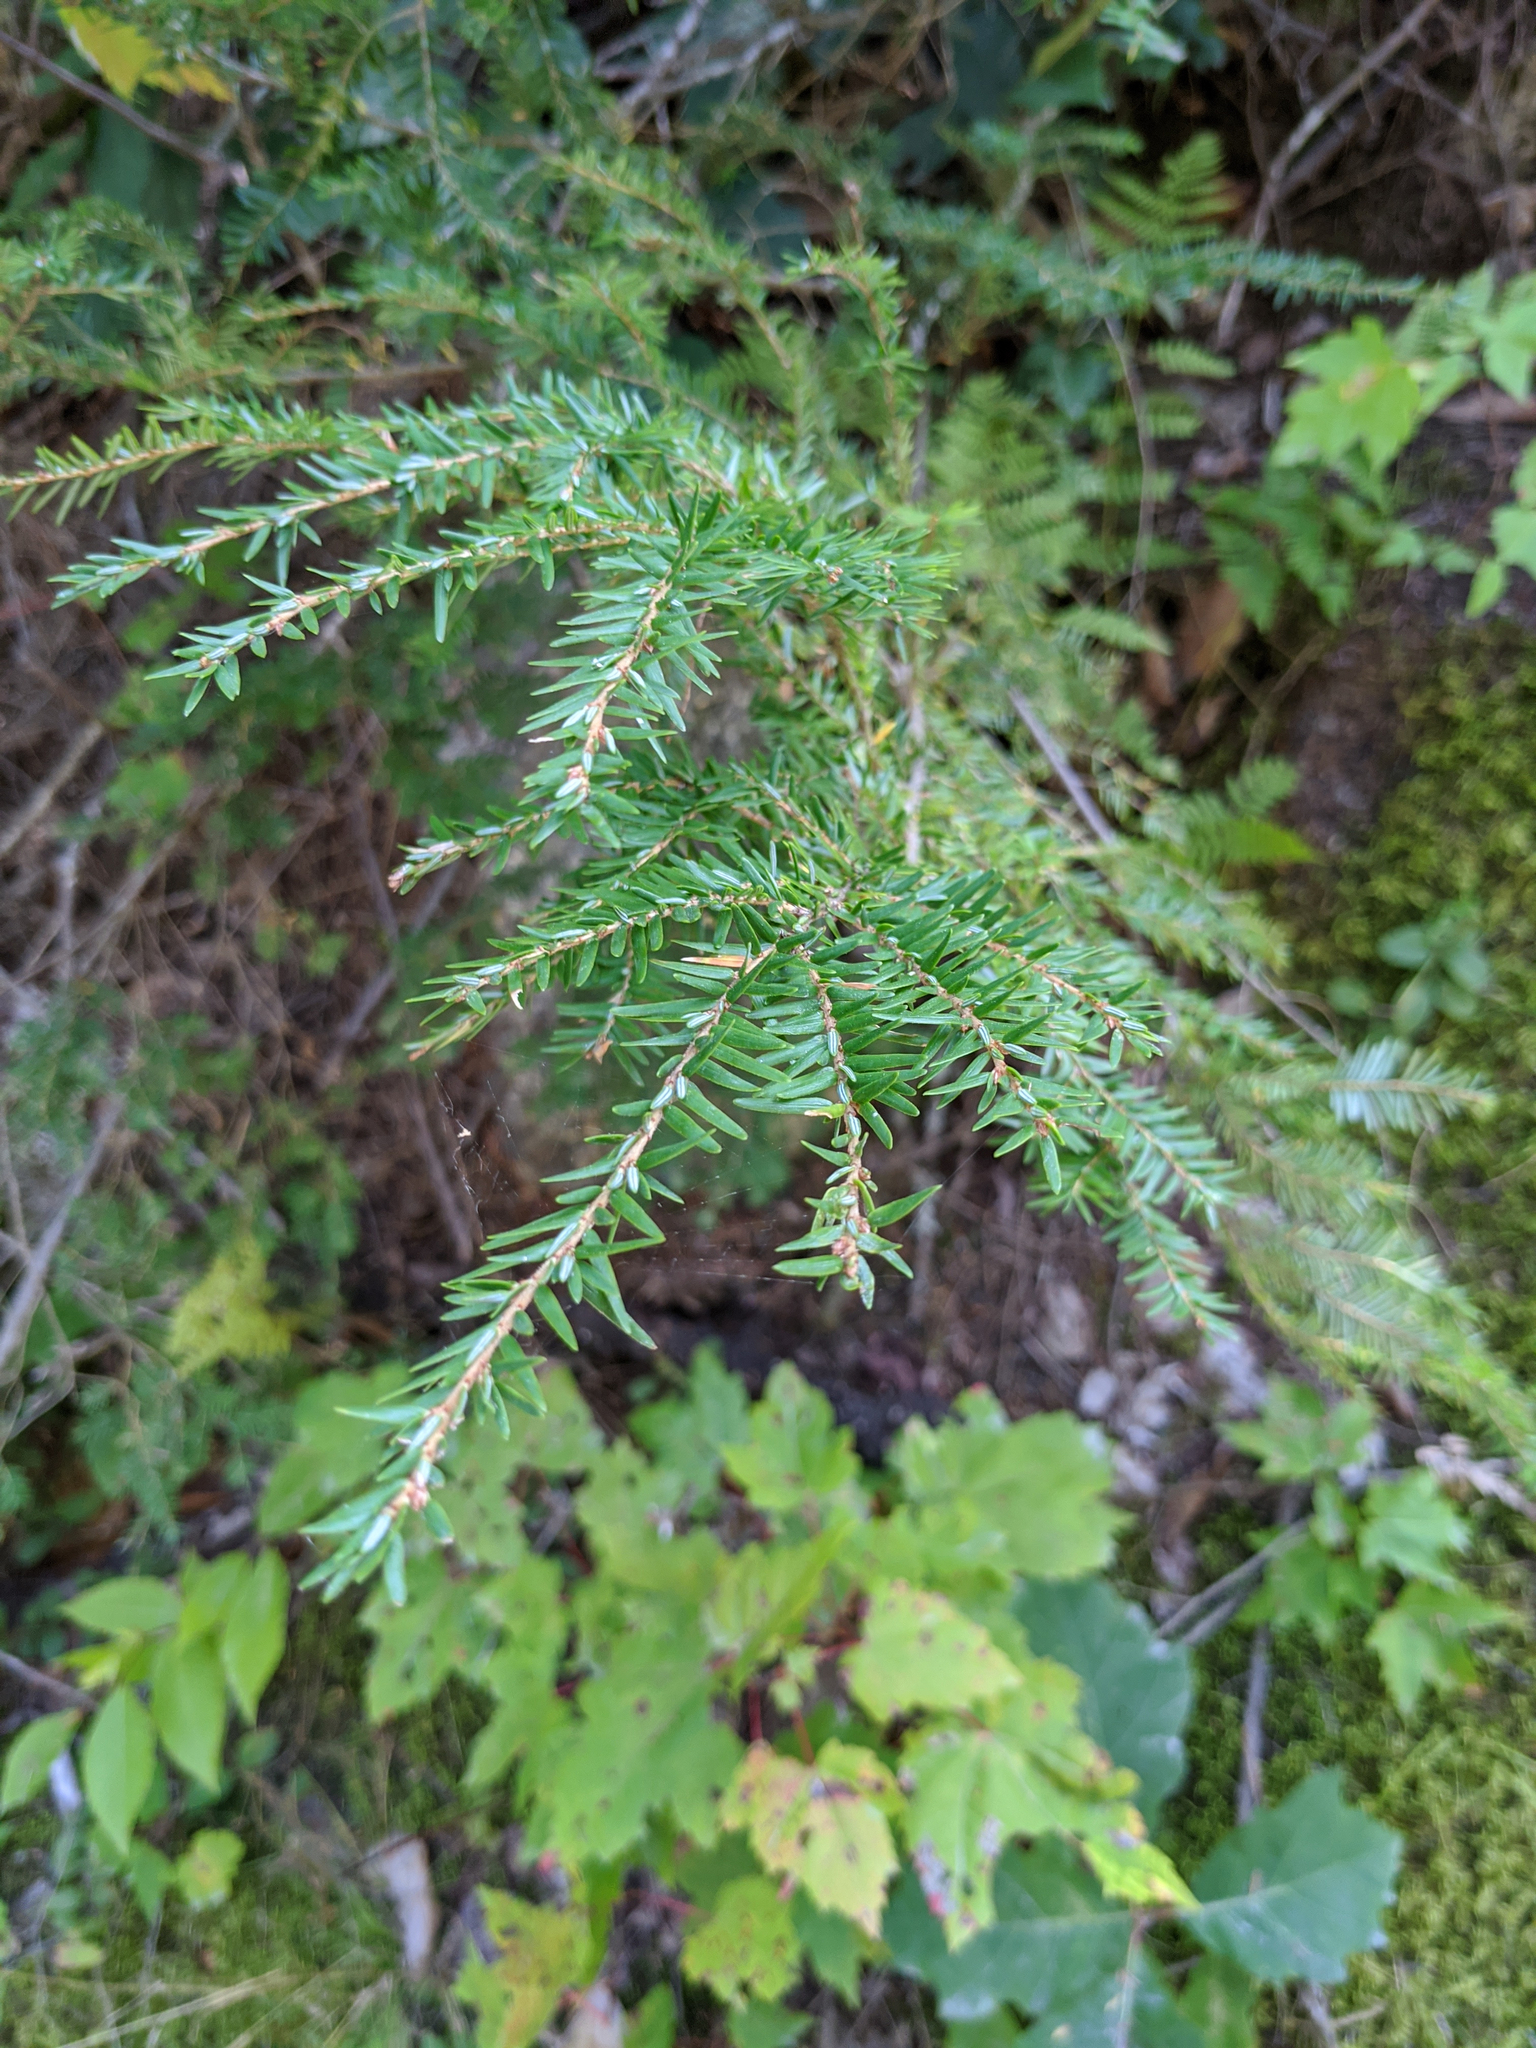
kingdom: Plantae
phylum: Tracheophyta
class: Pinopsida
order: Pinales
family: Pinaceae
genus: Tsuga
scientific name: Tsuga canadensis
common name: Eastern hemlock
